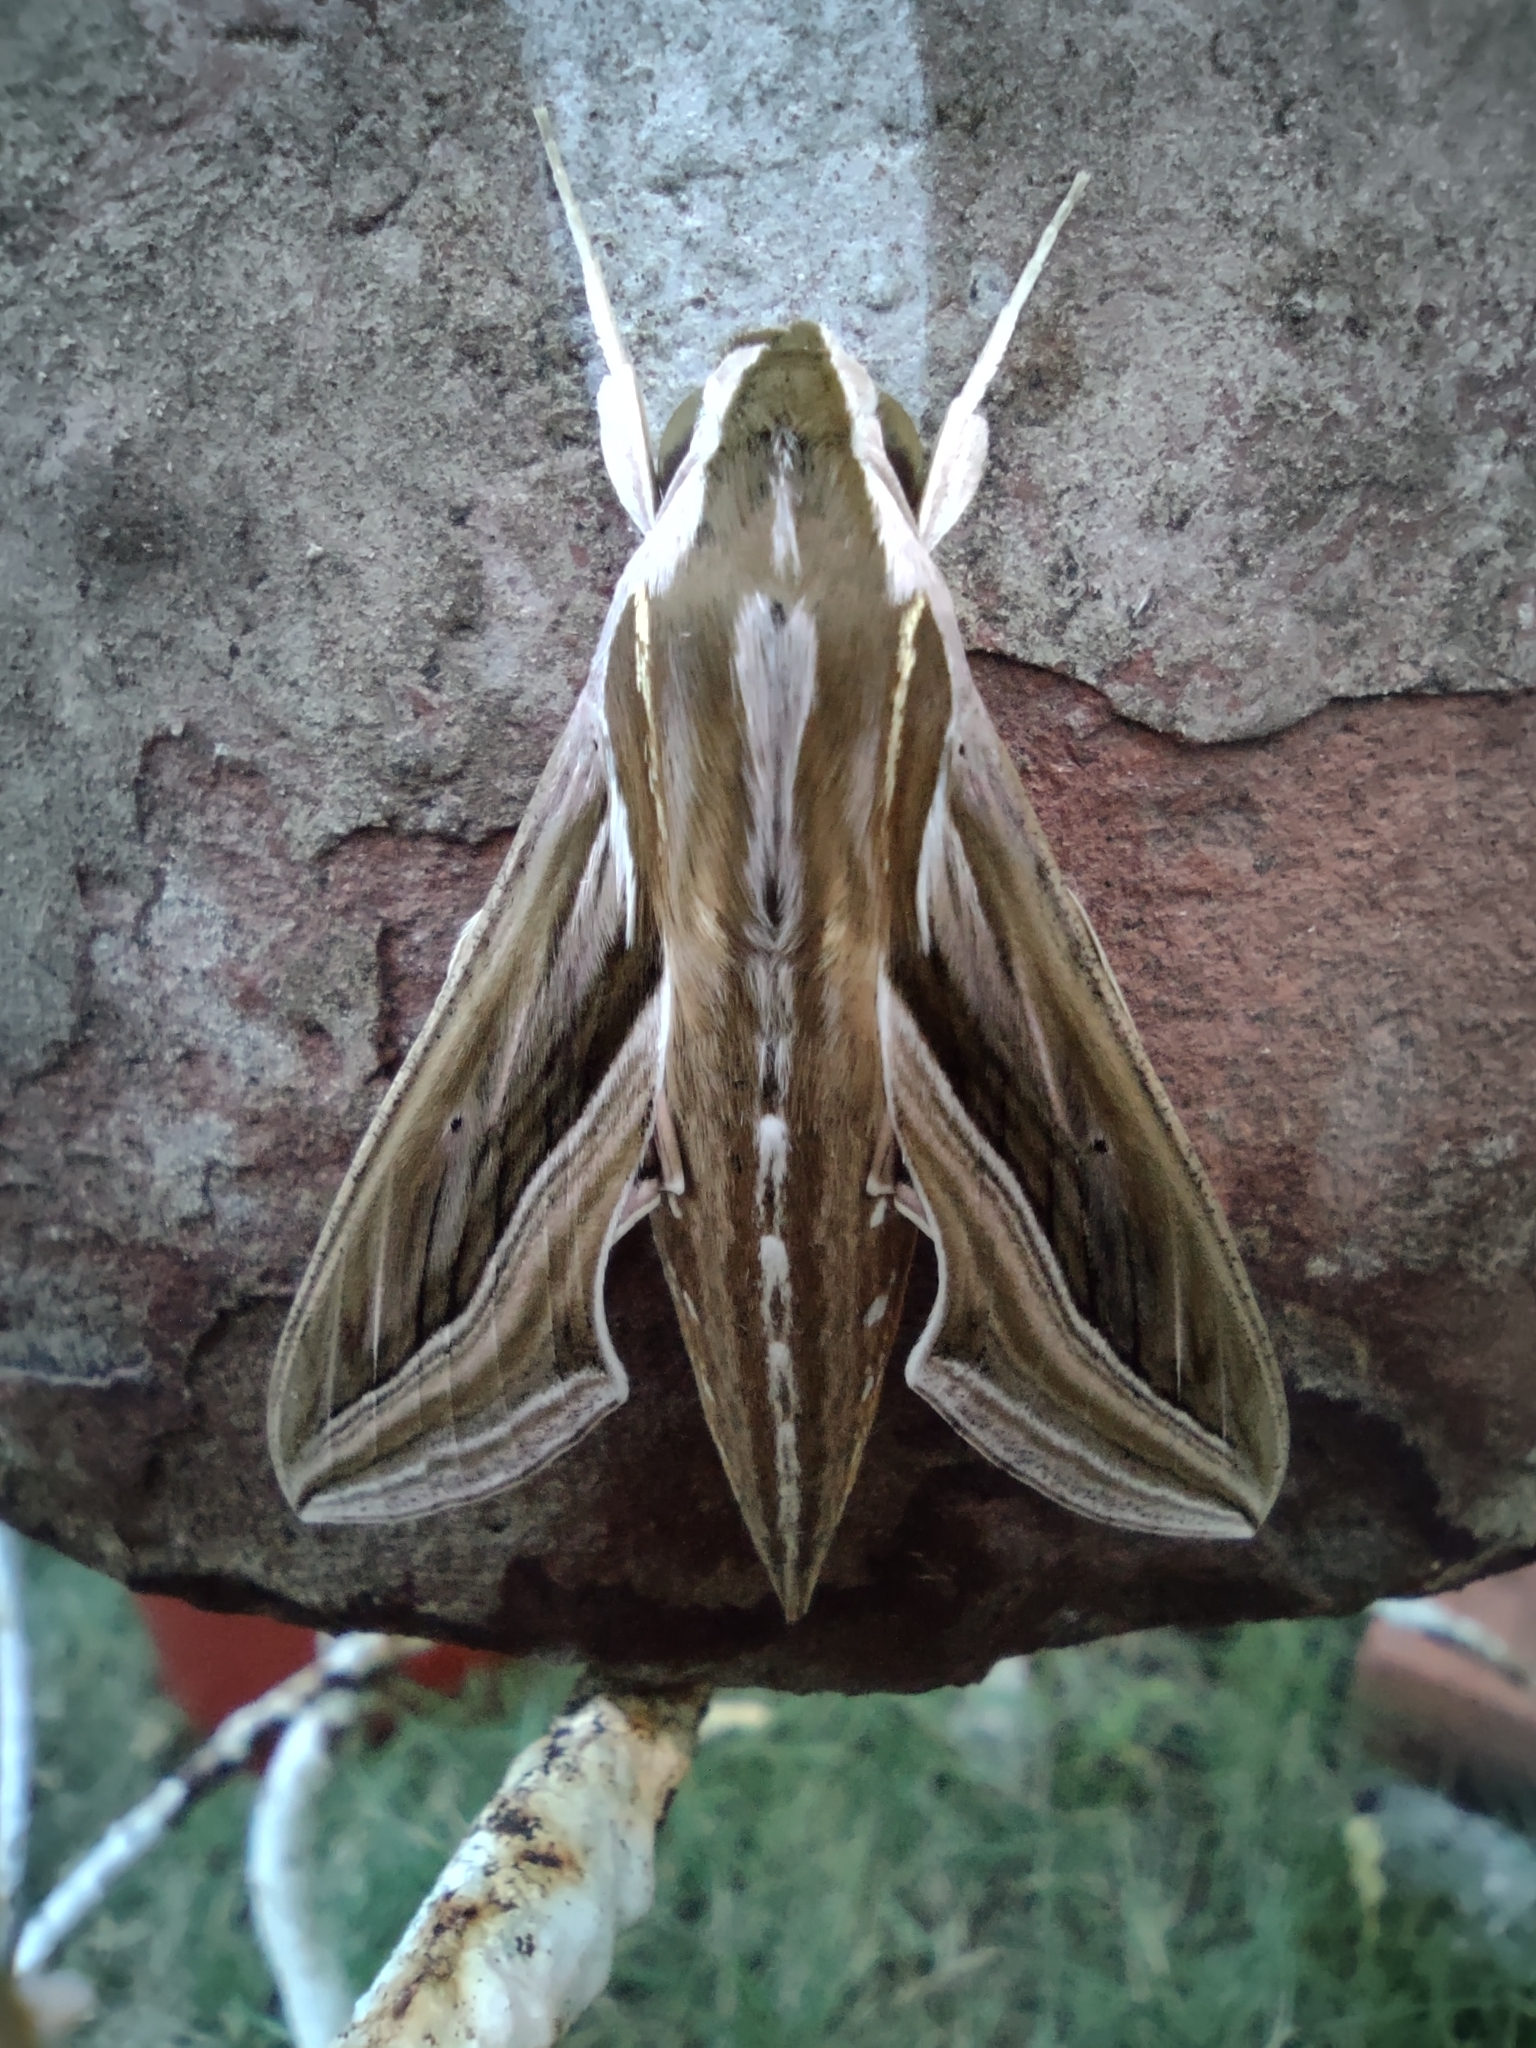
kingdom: Animalia
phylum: Arthropoda
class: Insecta
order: Lepidoptera
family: Sphingidae
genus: Hippotion
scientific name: Hippotion celerio
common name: Silver-striped hawk-moth
